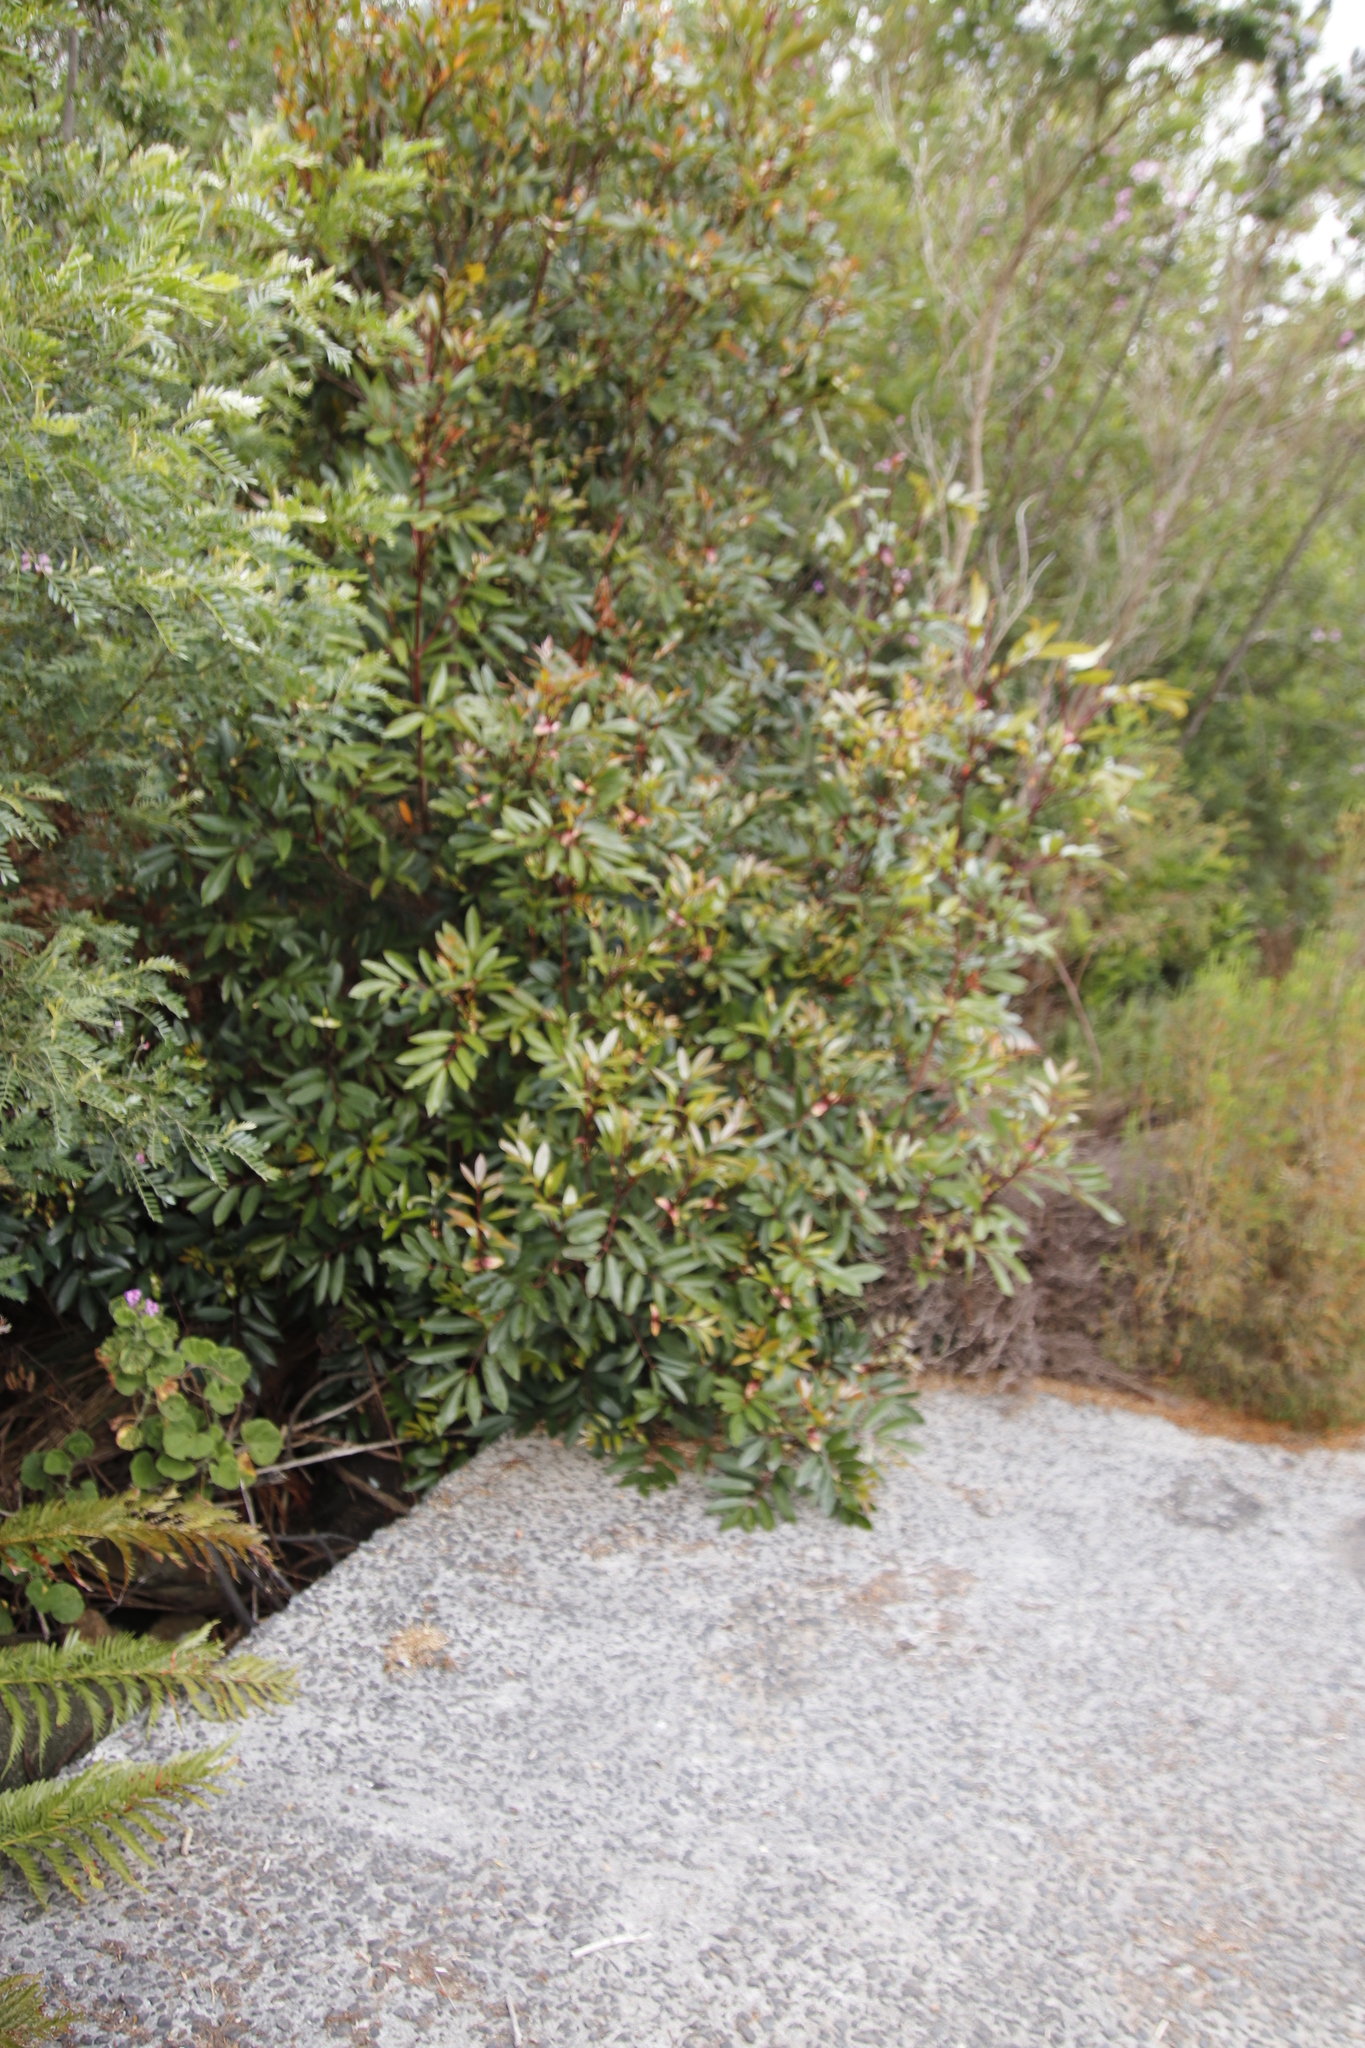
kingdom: Plantae
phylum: Tracheophyta
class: Magnoliopsida
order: Oxalidales
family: Cunoniaceae
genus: Cunonia
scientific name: Cunonia capensis
